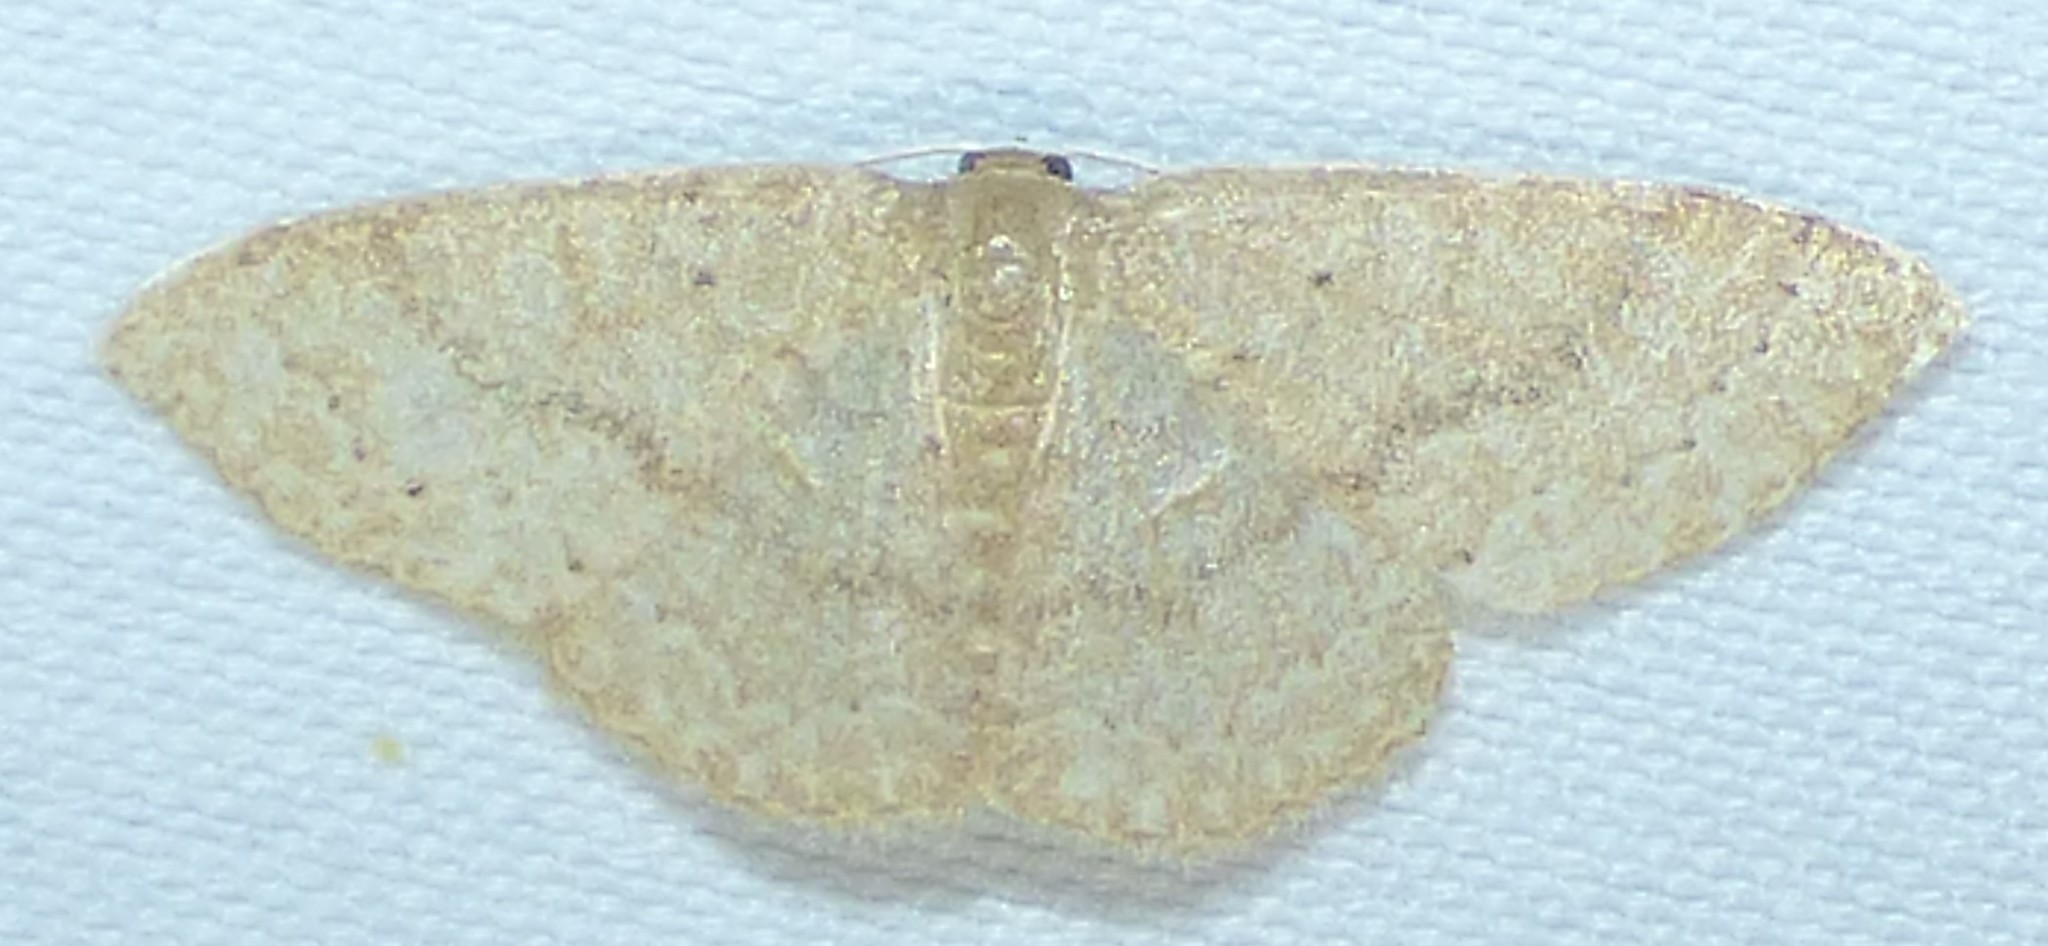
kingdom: Animalia
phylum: Arthropoda
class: Insecta
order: Lepidoptera
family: Geometridae
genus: Pleuroprucha
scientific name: Pleuroprucha insulsaria
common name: Common tan wave
